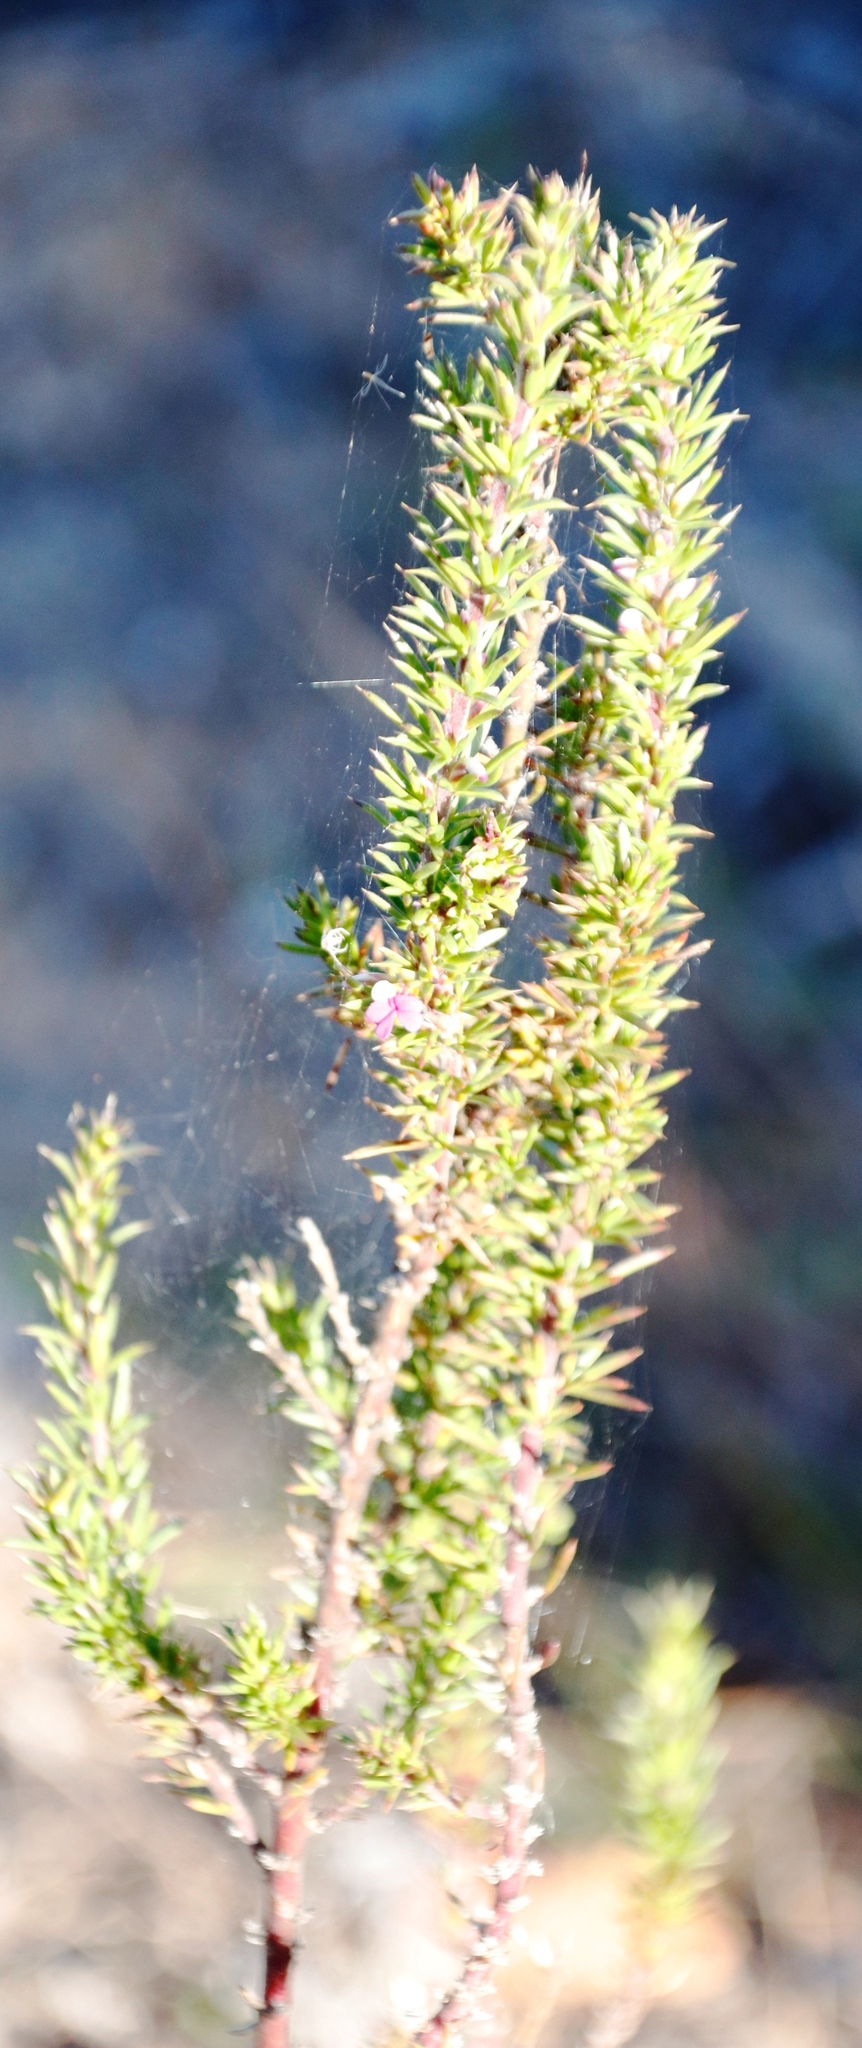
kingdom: Plantae
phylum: Tracheophyta
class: Magnoliopsida
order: Fabales
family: Polygalaceae
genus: Muraltia
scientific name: Muraltia heisteria
